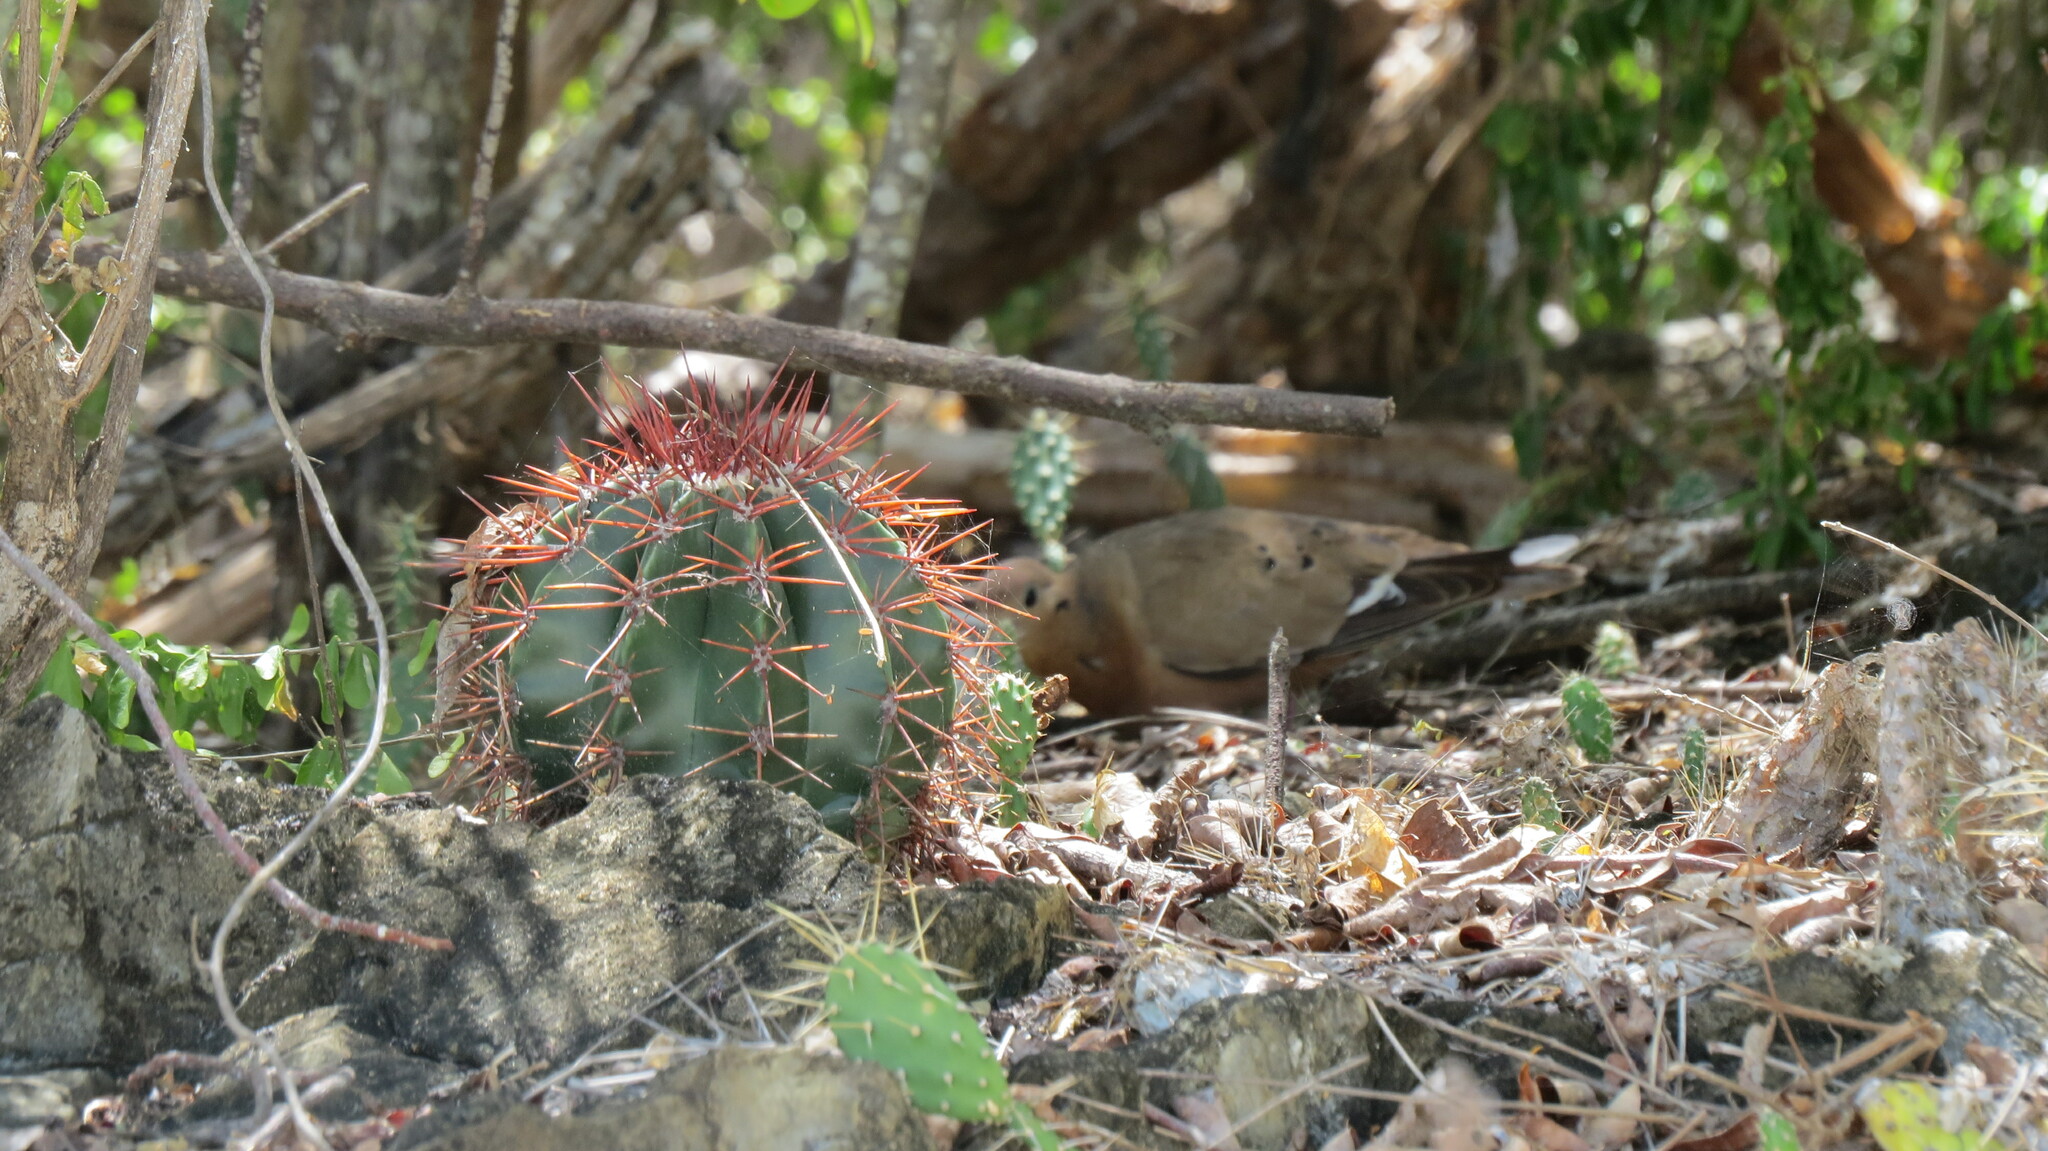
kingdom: Animalia
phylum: Chordata
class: Aves
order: Columbiformes
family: Columbidae
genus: Zenaida
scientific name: Zenaida aurita
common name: Zenaida dove
